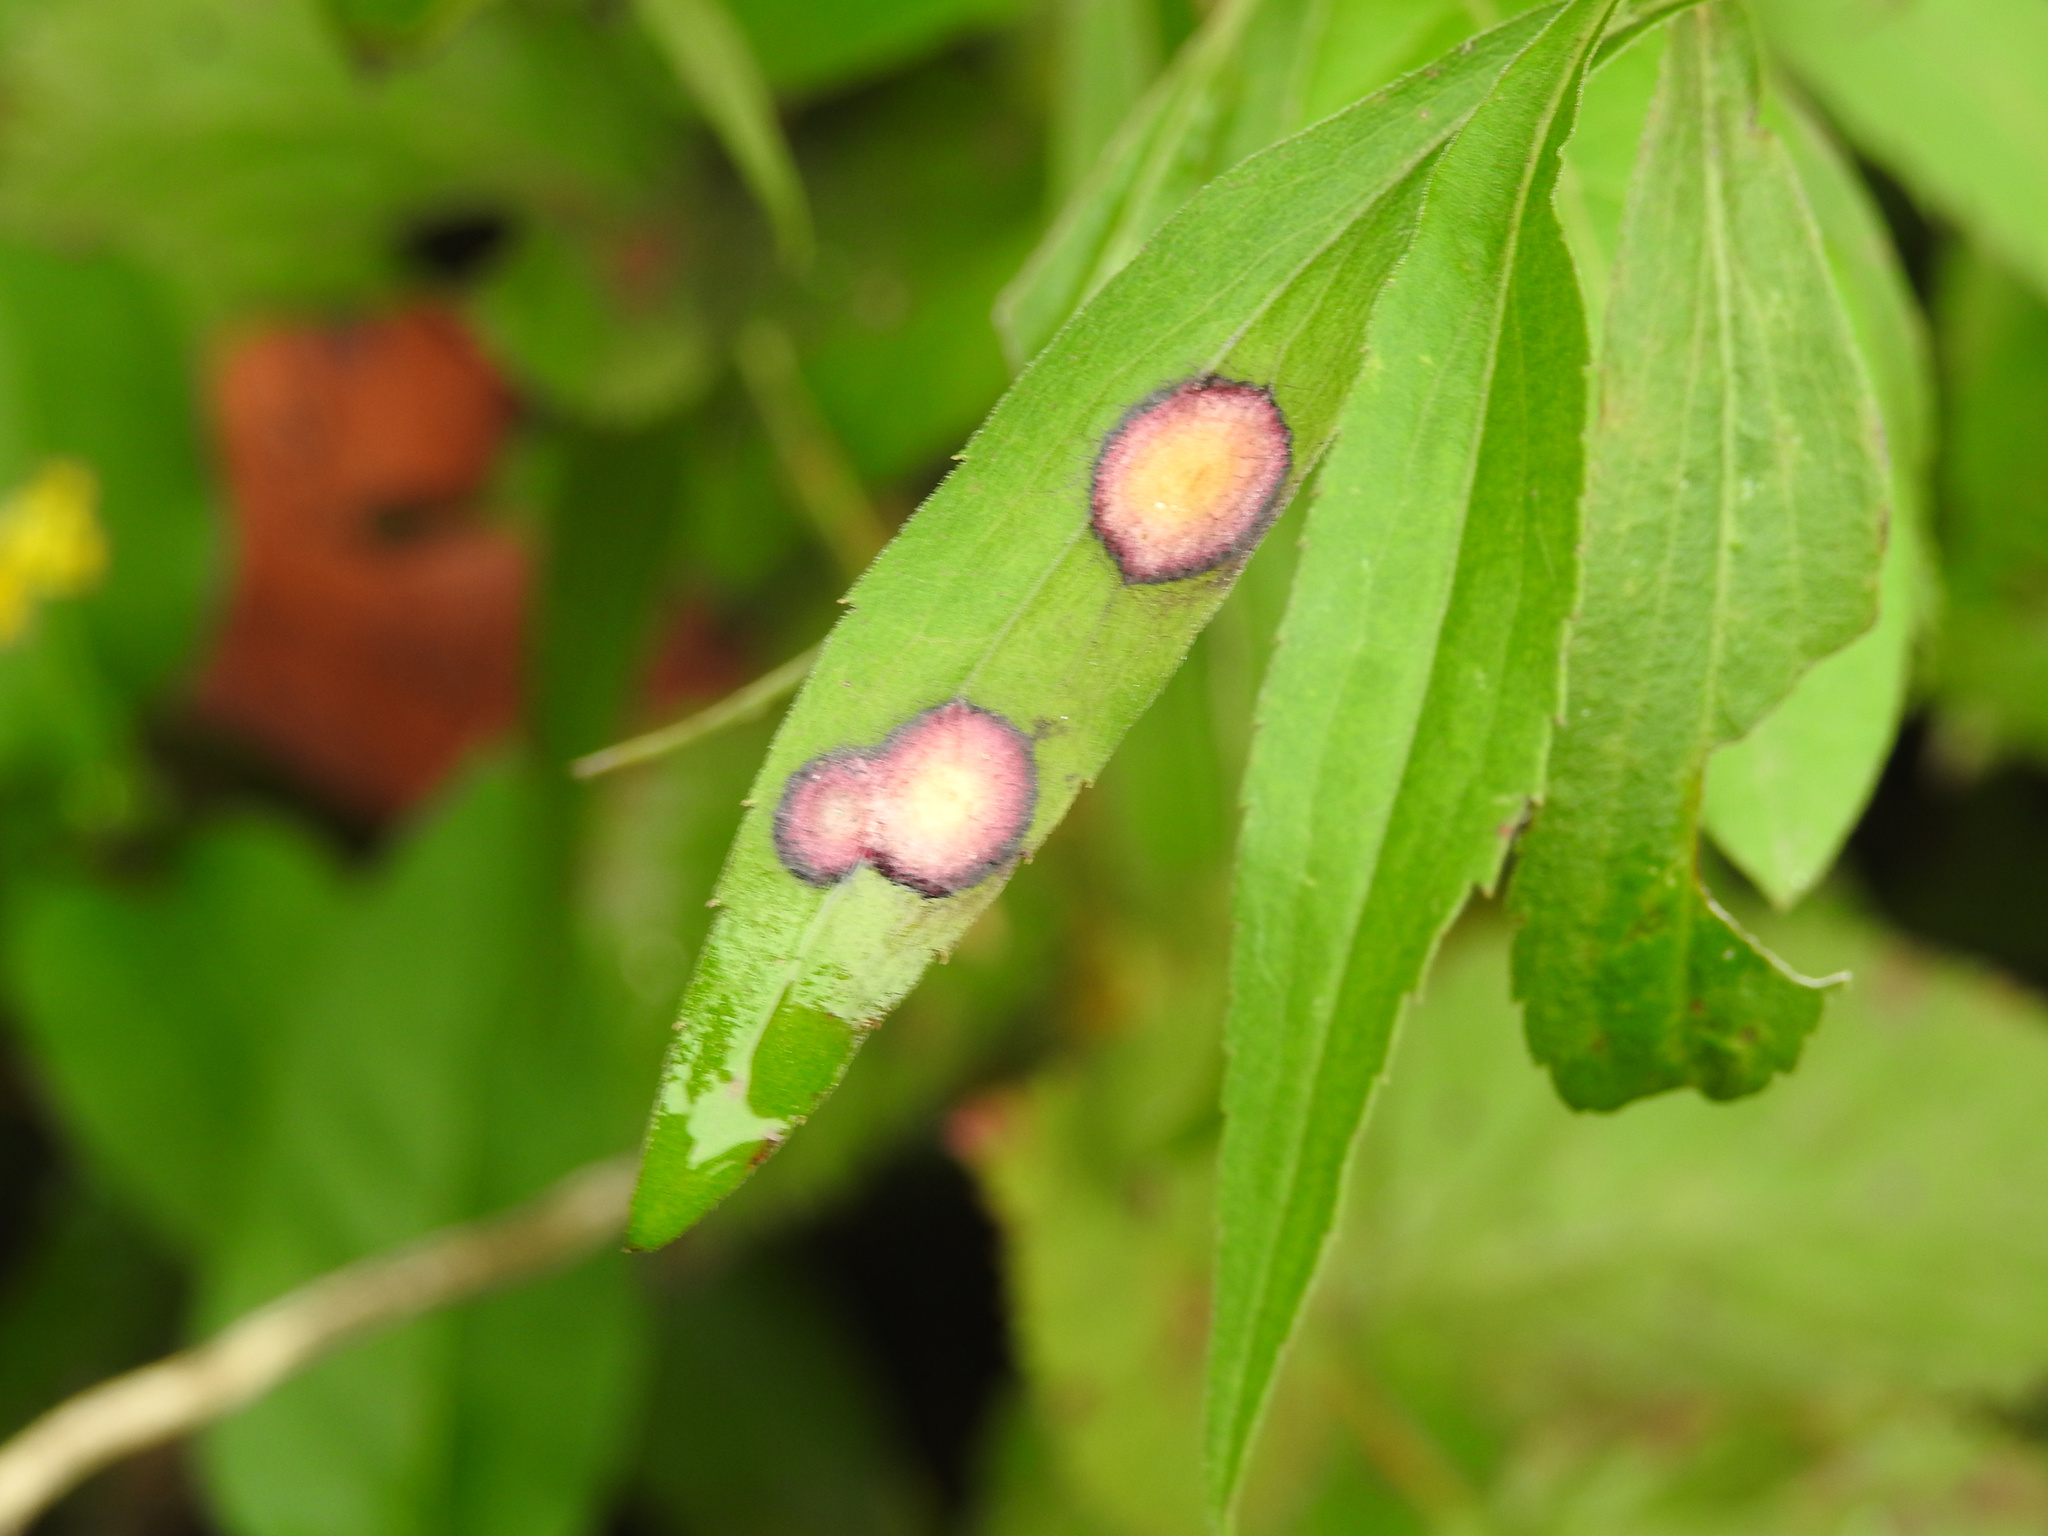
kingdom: Animalia
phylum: Arthropoda
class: Insecta
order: Diptera
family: Cecidomyiidae
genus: Asteromyia
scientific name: Asteromyia carbonifera
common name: Carbonifera goldenrod gall midge
